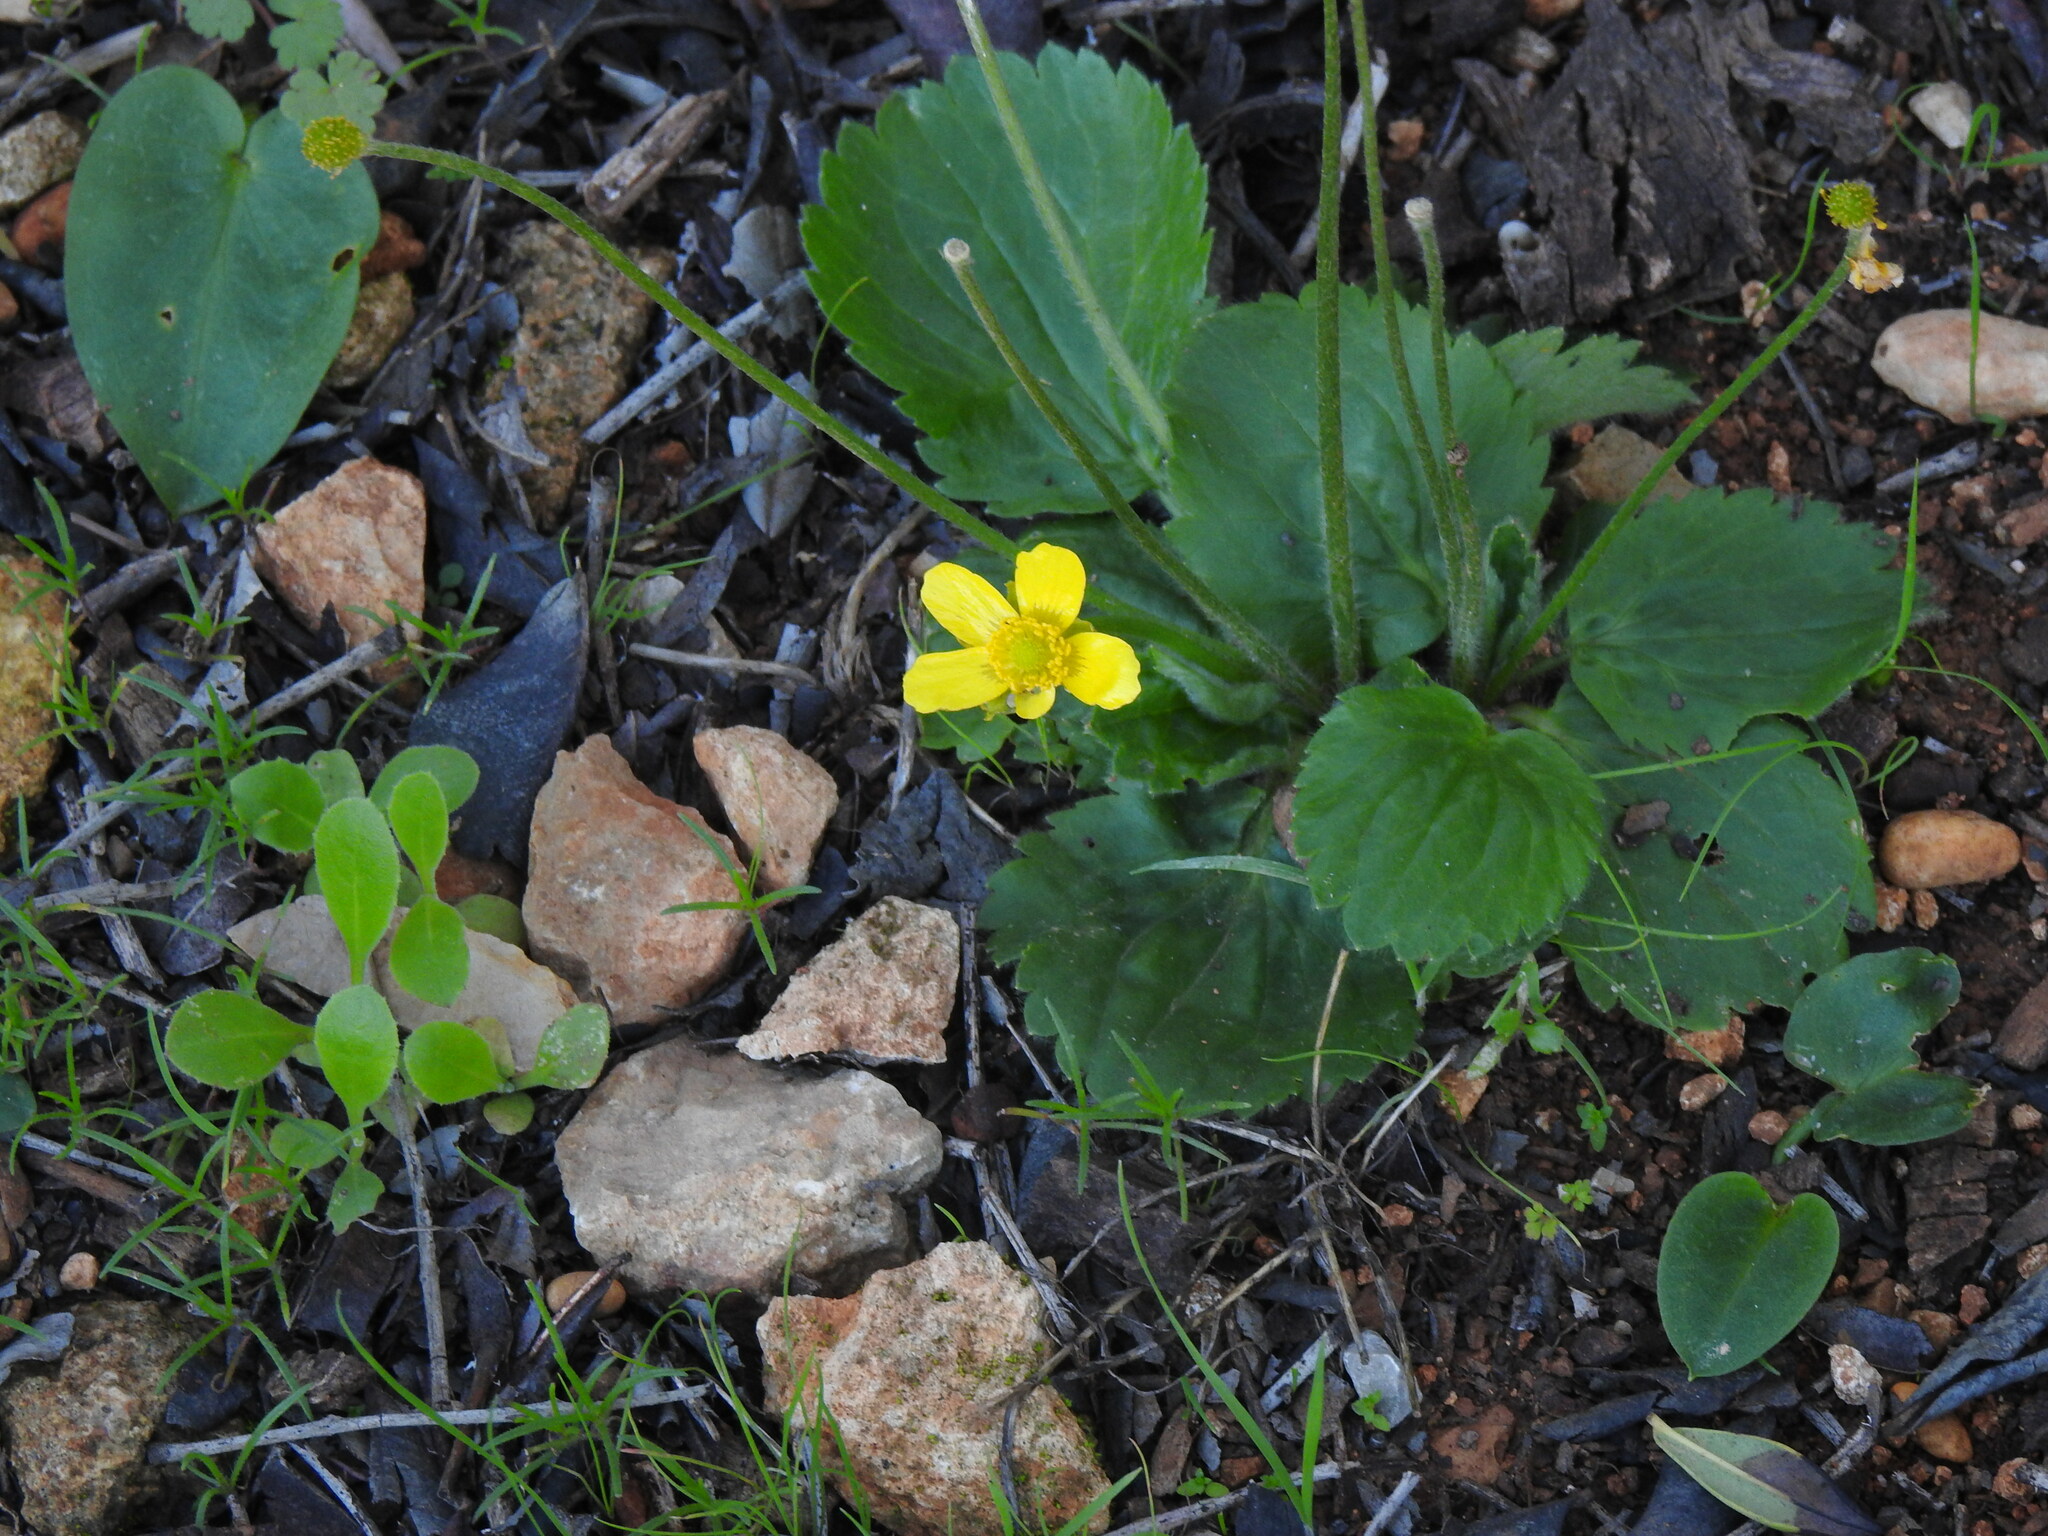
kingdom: Plantae
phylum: Tracheophyta
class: Magnoliopsida
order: Ranunculales
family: Ranunculaceae
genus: Ranunculus
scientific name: Ranunculus bullatus
